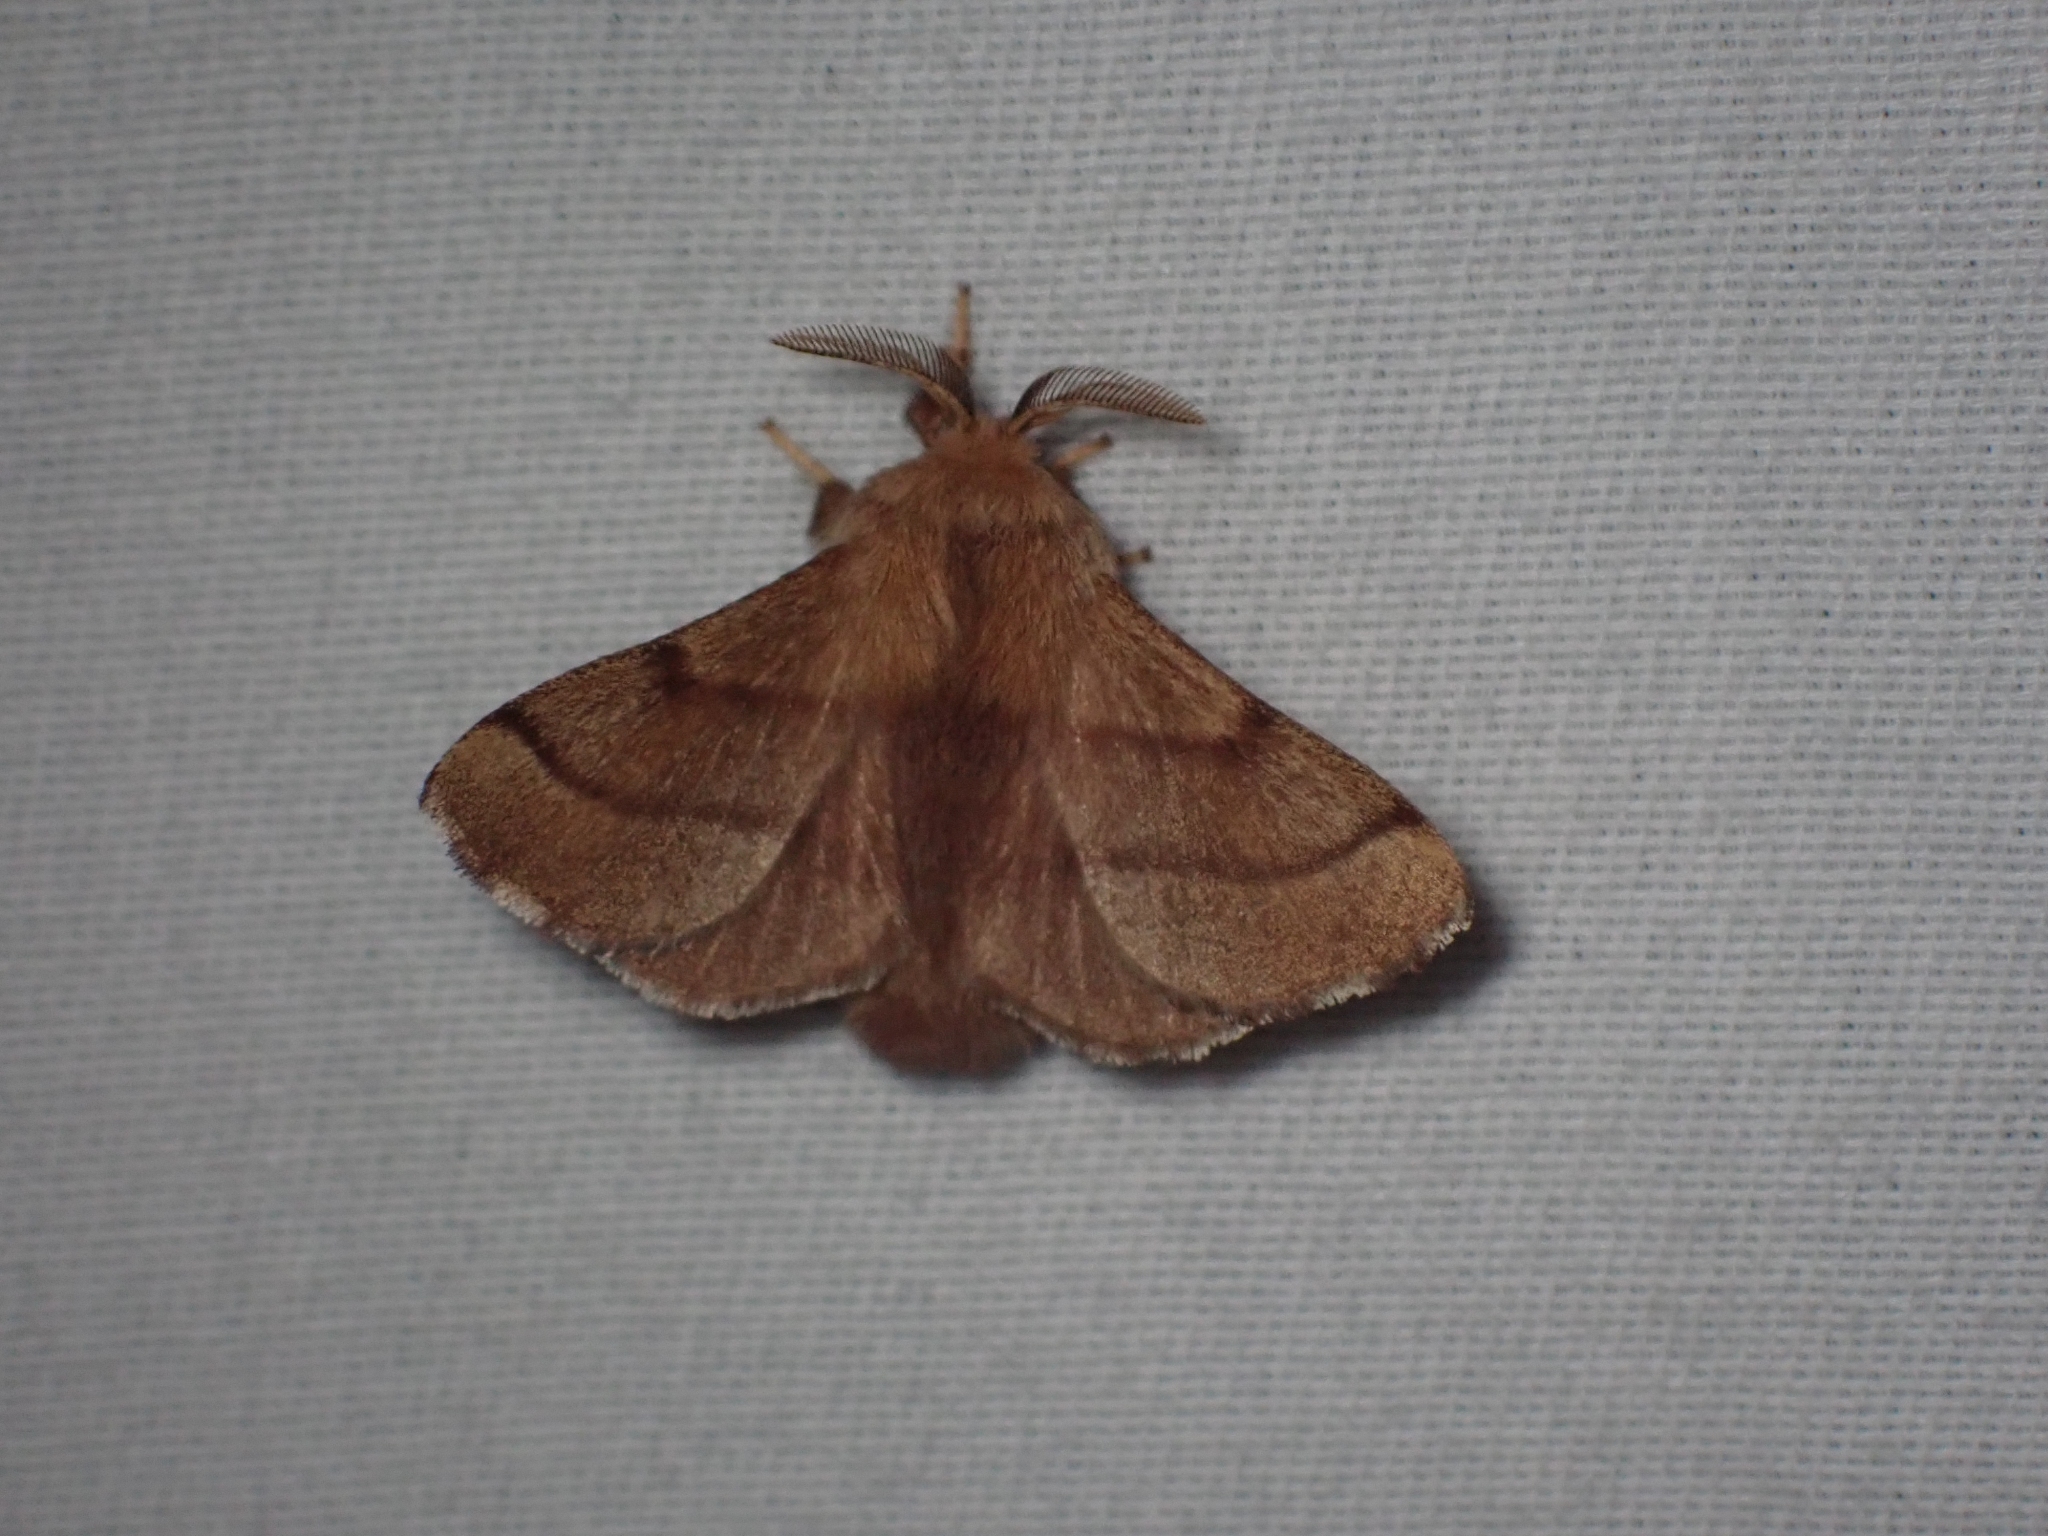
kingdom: Animalia
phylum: Arthropoda
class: Insecta
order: Lepidoptera
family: Lasiocampidae
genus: Malacosoma
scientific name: Malacosoma disstria
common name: Forest tent caterpillar
